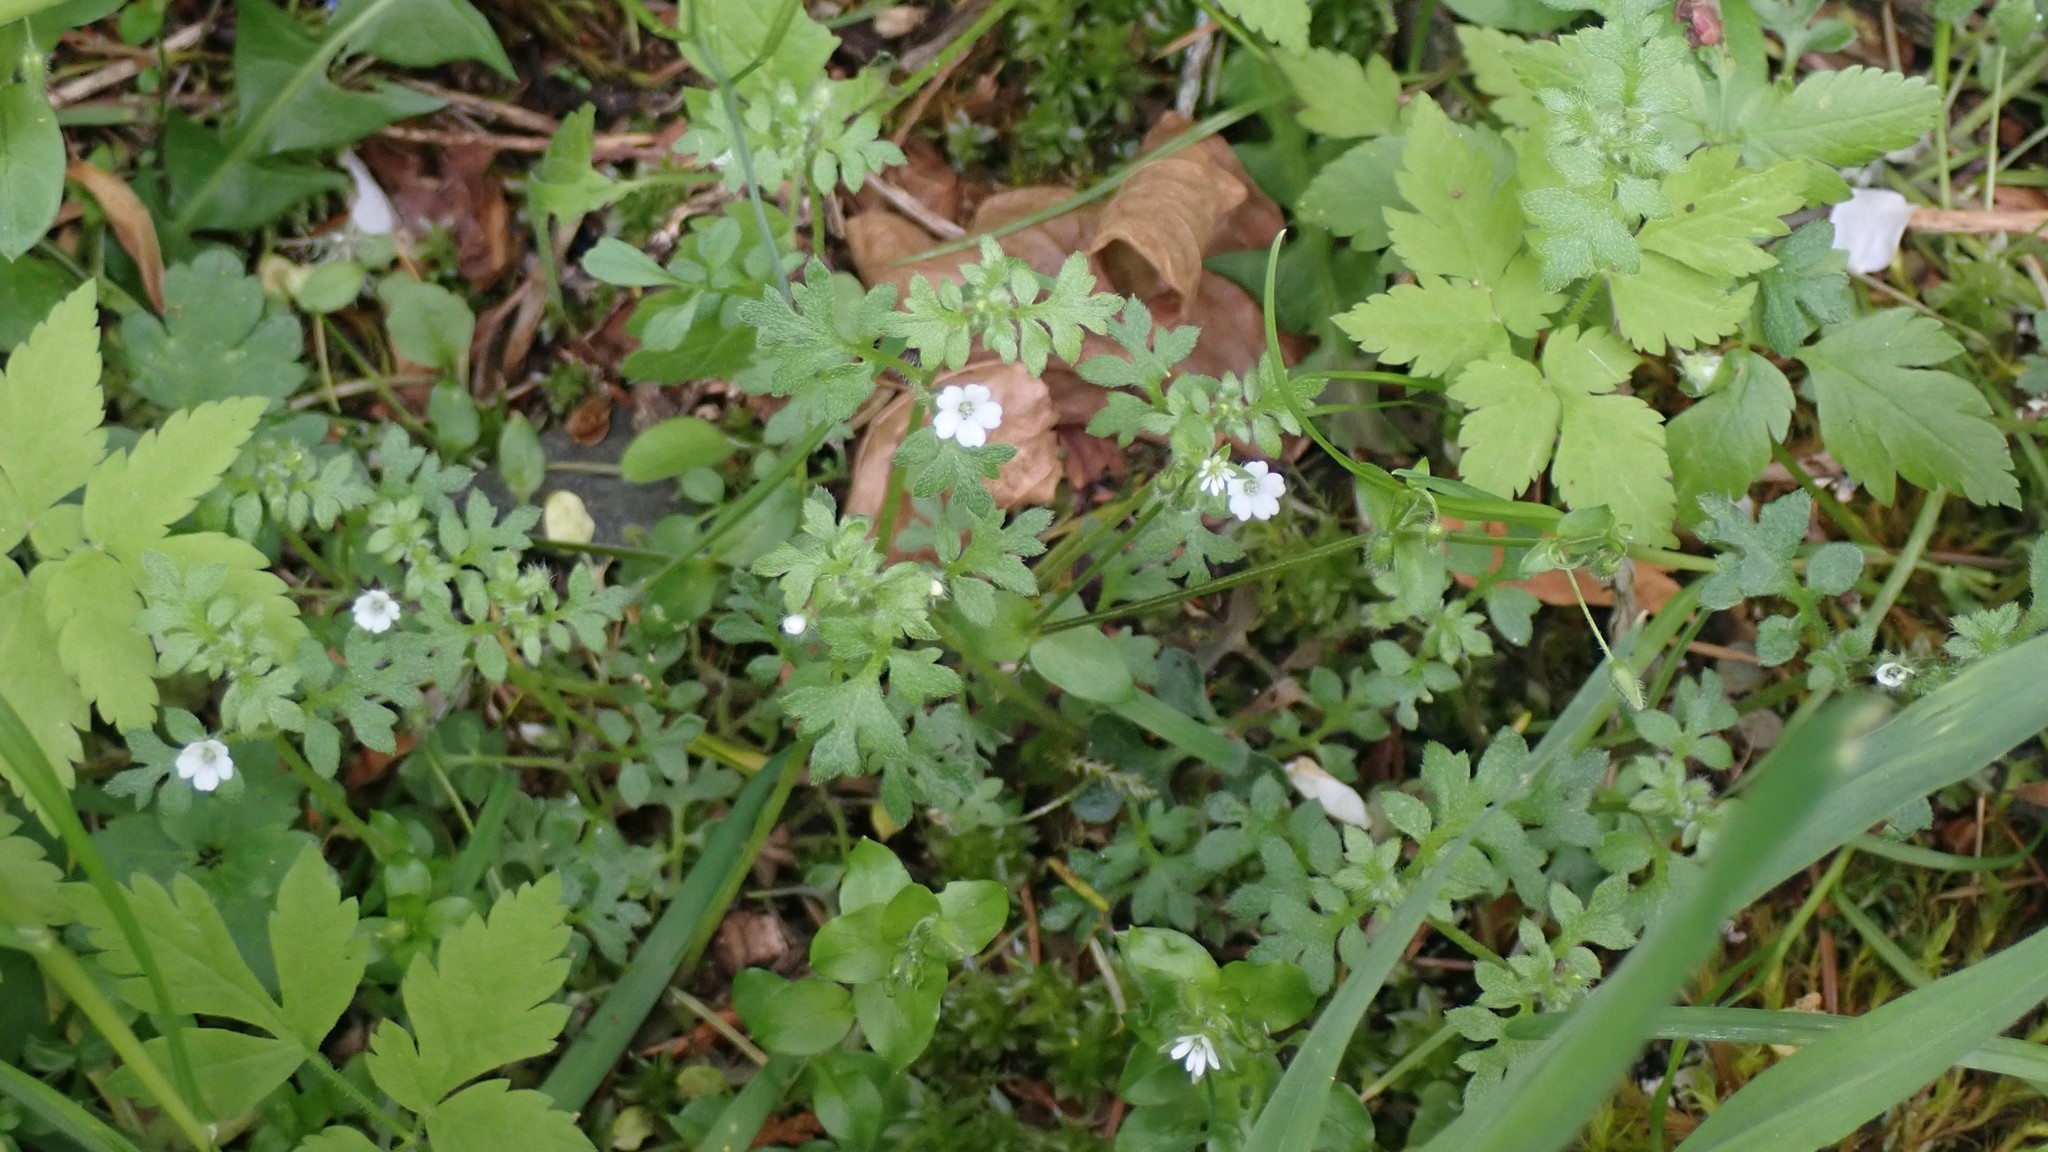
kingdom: Plantae
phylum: Tracheophyta
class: Magnoliopsida
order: Boraginales
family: Hydrophyllaceae
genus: Nemophila
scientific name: Nemophila parviflora
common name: Small-flowered baby-blue-eyes
